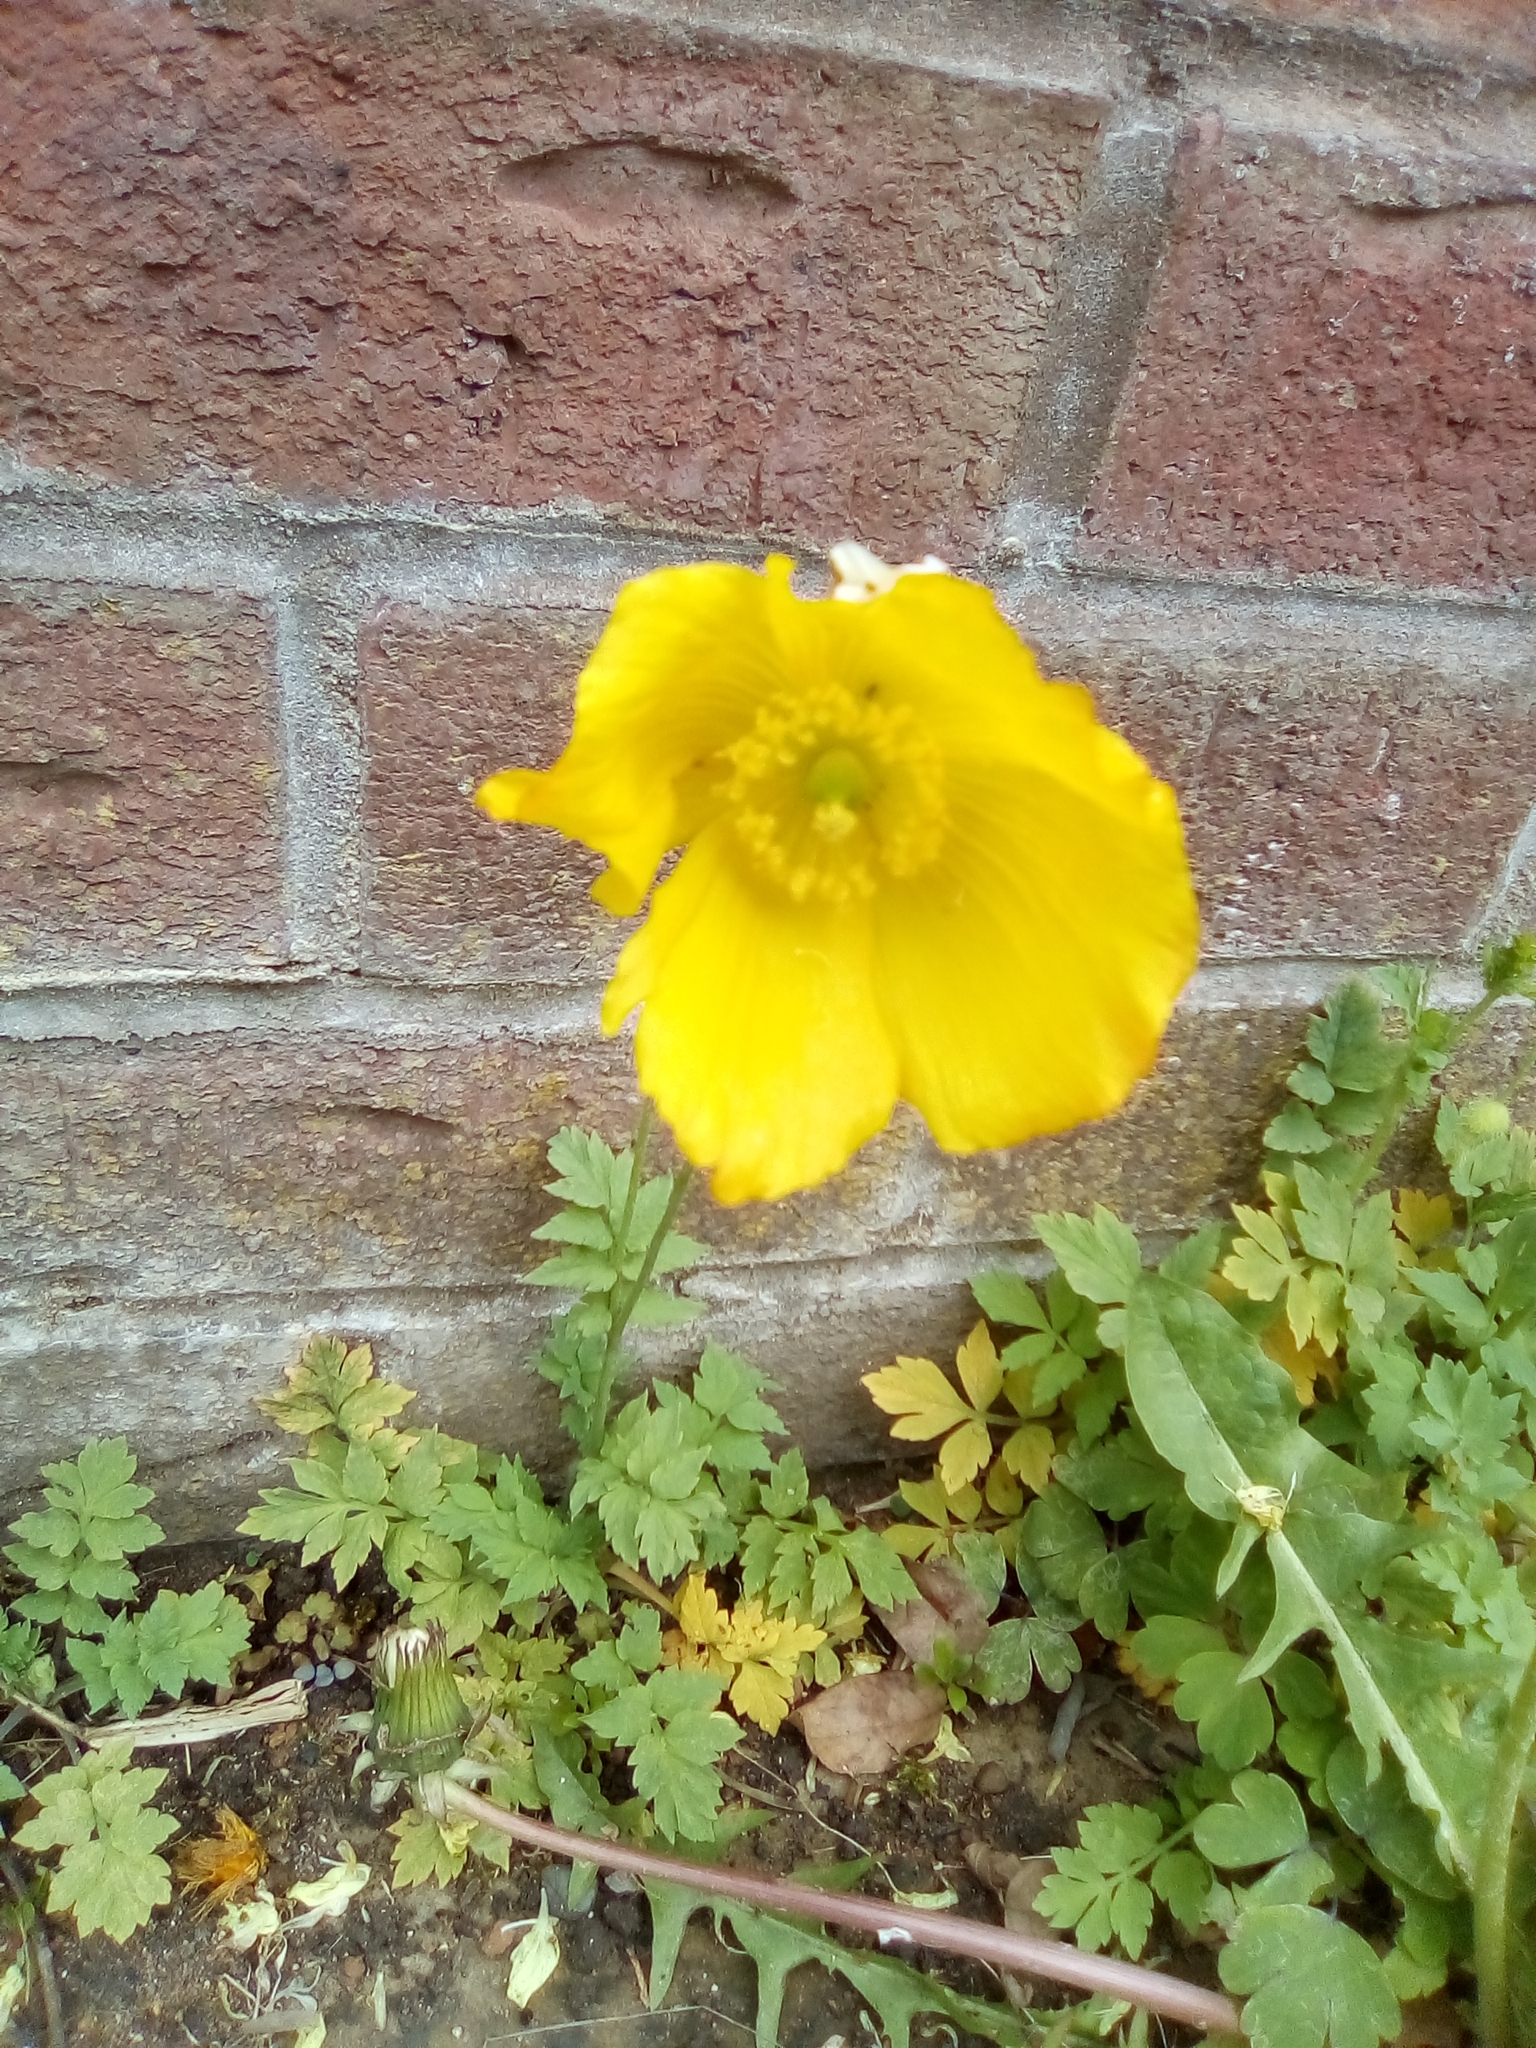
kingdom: Plantae
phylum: Tracheophyta
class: Magnoliopsida
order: Ranunculales
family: Papaveraceae
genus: Papaver
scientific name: Papaver cambricum
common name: Poppy
